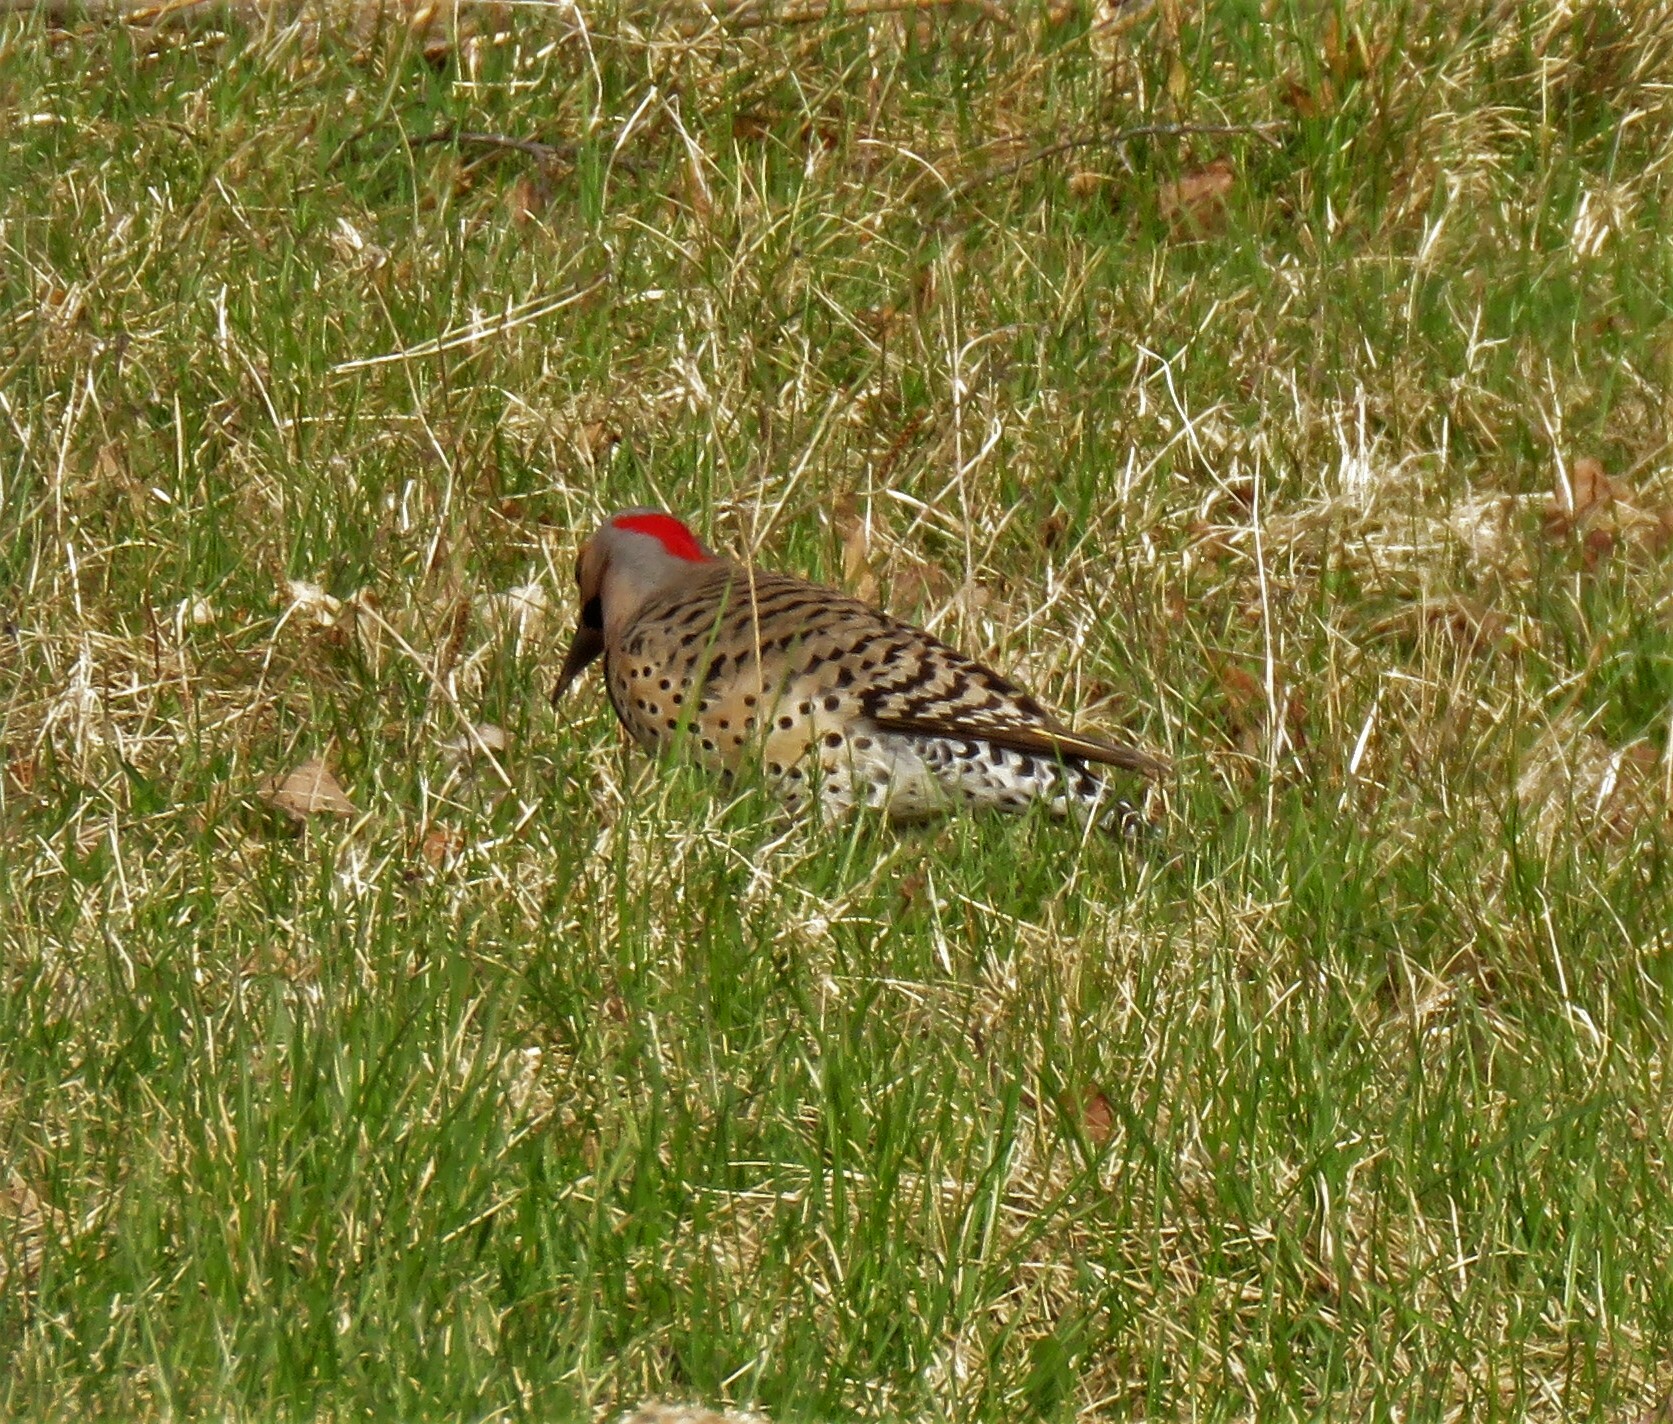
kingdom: Animalia
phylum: Chordata
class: Aves
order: Piciformes
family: Picidae
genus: Colaptes
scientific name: Colaptes auratus
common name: Northern flicker
